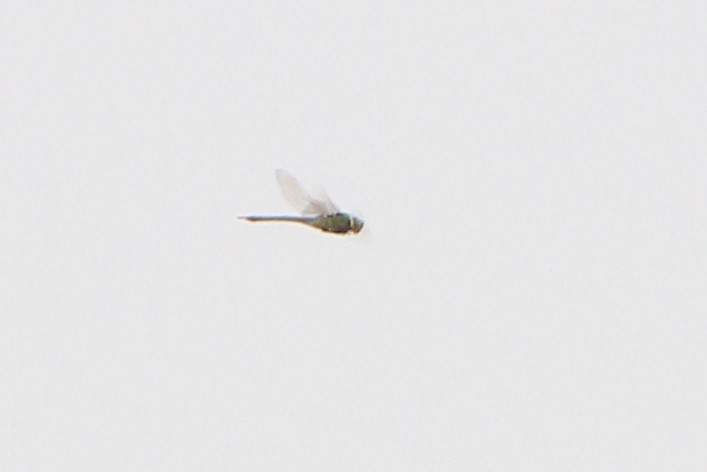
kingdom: Animalia
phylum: Arthropoda
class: Insecta
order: Odonata
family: Aeshnidae
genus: Anax
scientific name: Anax junius
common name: Common green darner
